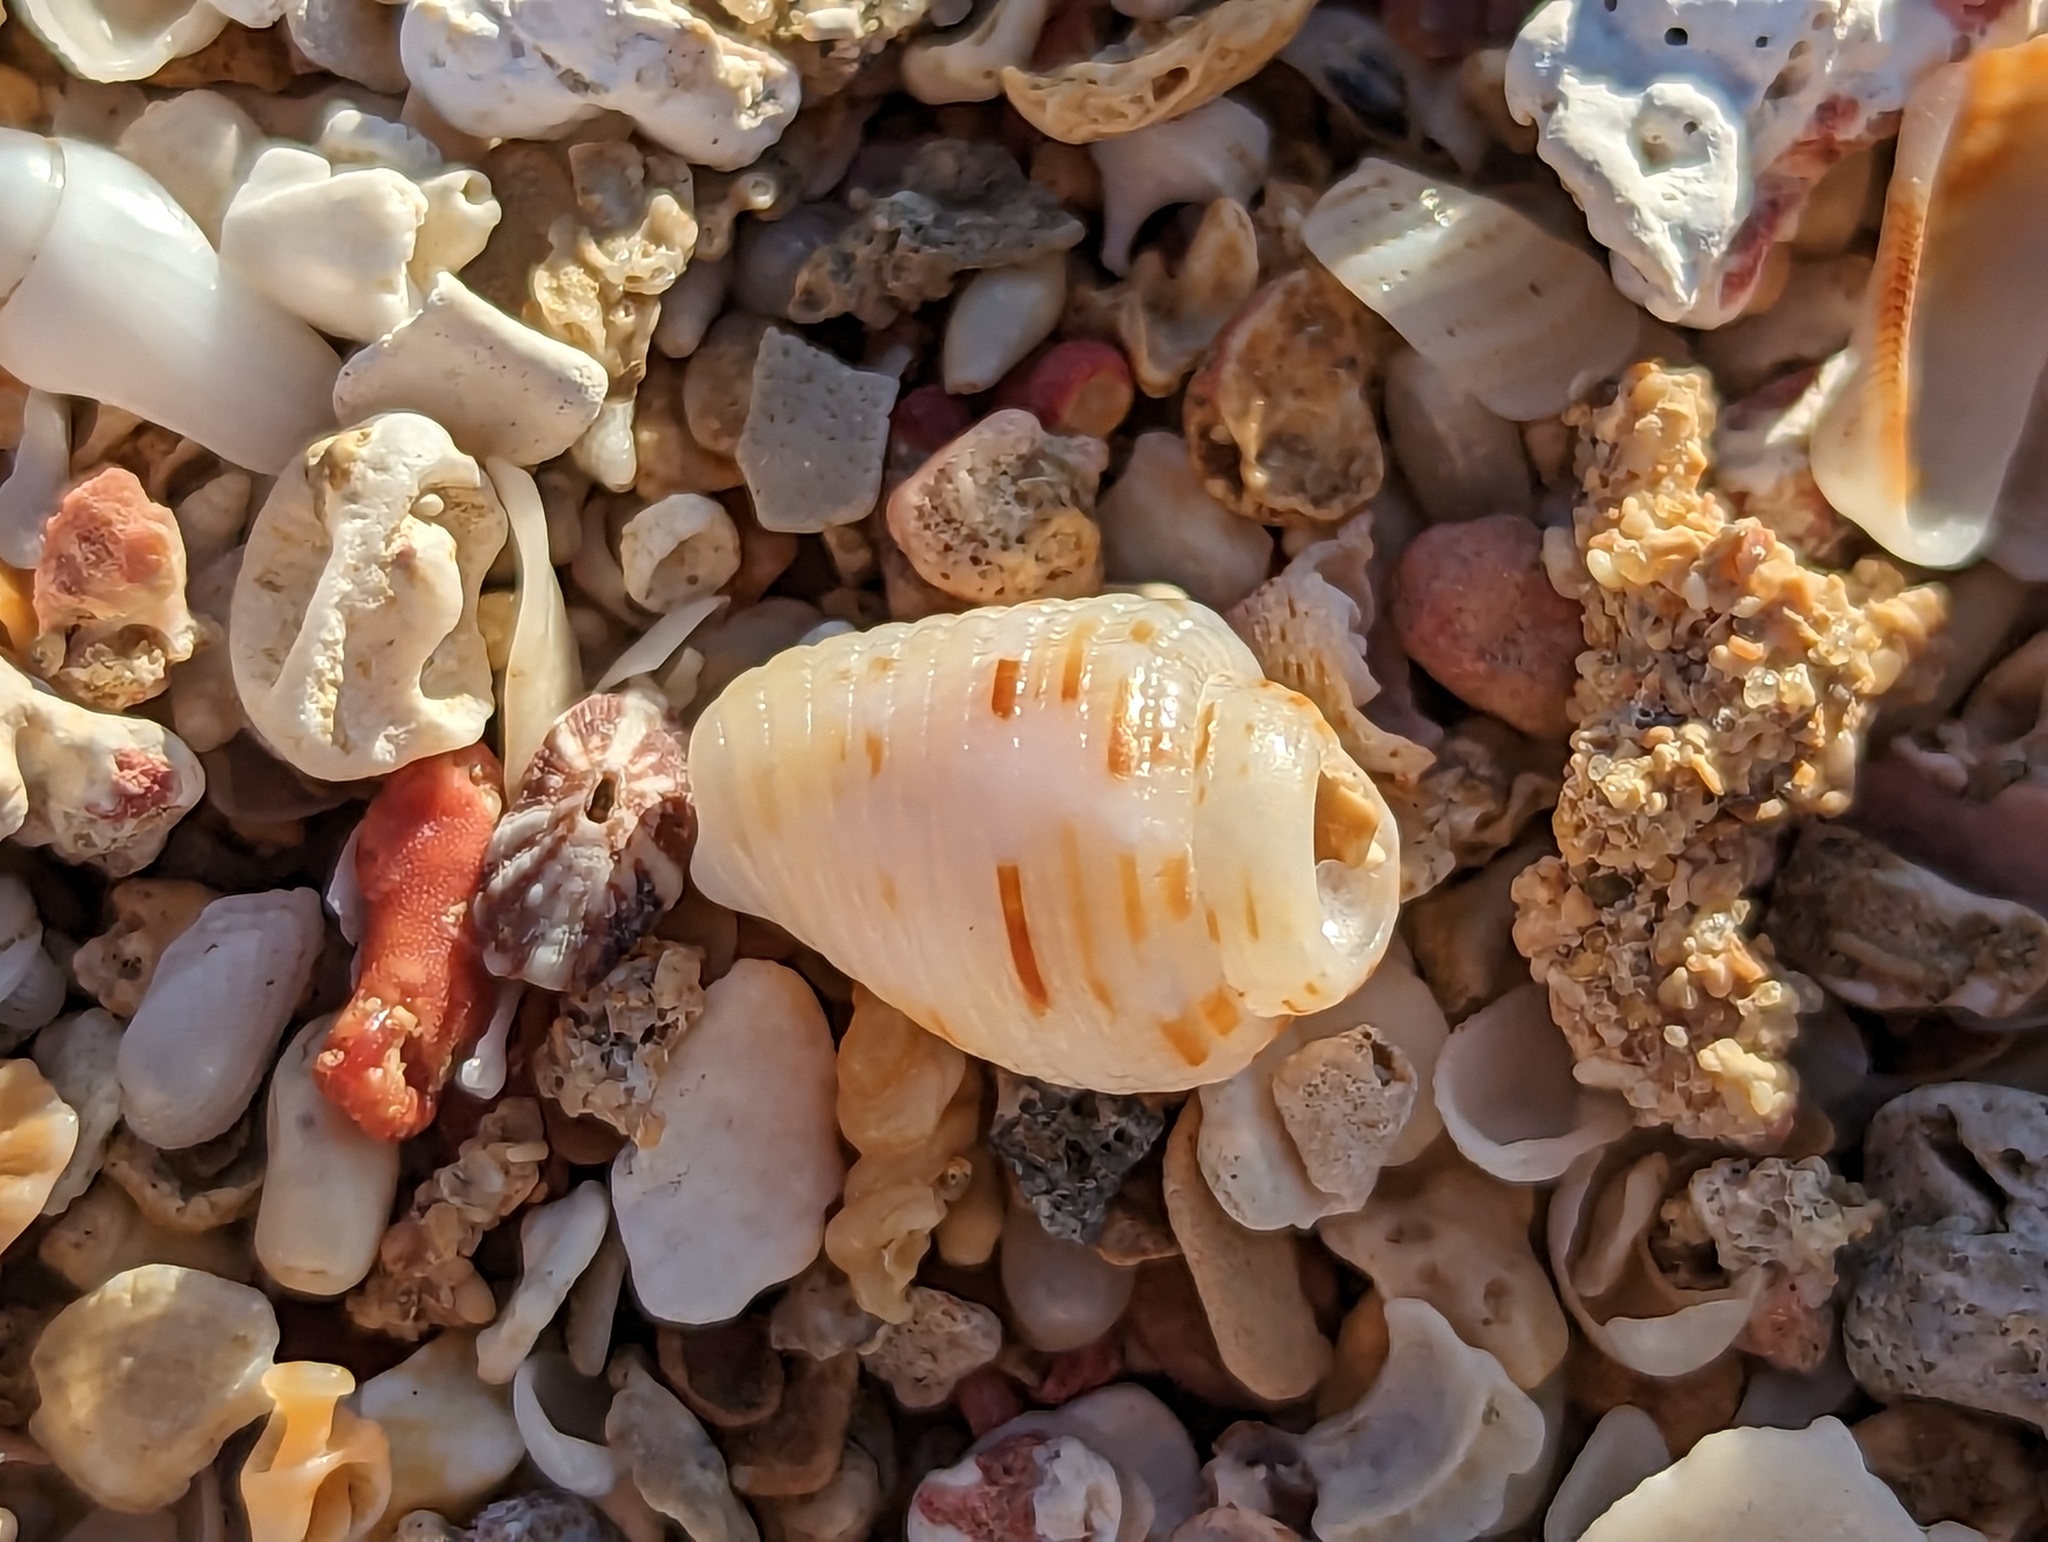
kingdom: Animalia
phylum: Mollusca
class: Gastropoda
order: Neogastropoda
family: Columbellidae
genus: Columbella
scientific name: Columbella mercatoria
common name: West indian dovesnail
